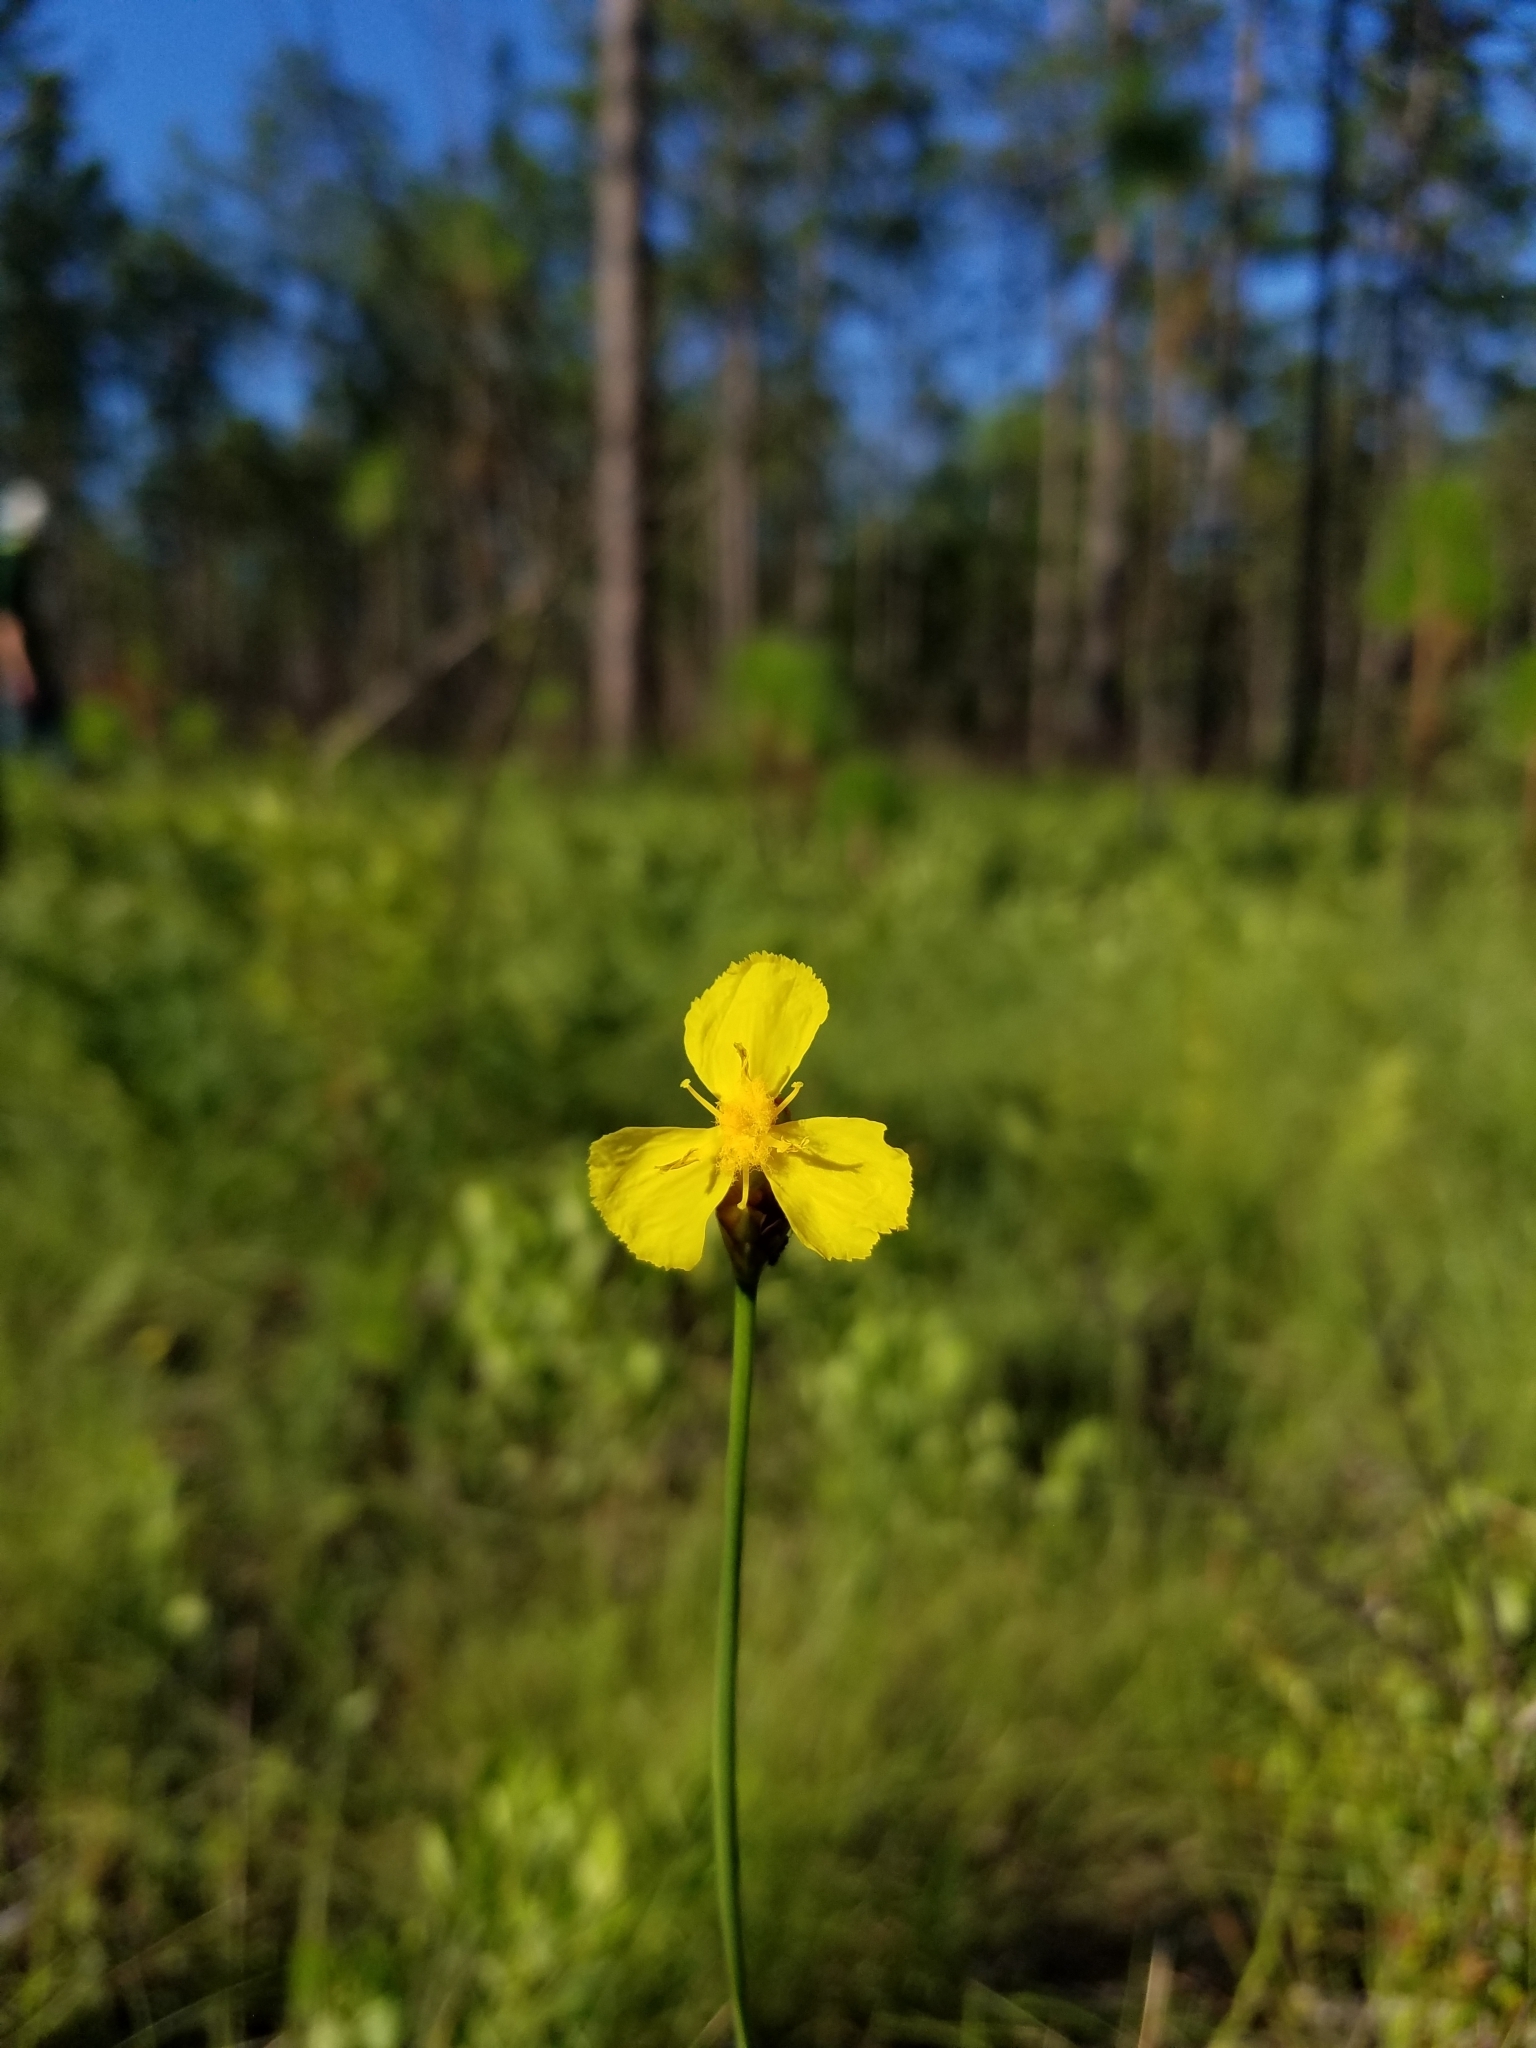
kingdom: Plantae
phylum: Tracheophyta
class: Liliopsida
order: Poales
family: Xyridaceae
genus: Xyris
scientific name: Xyris caroliniana
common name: Carolina yellow-eyed-grass
